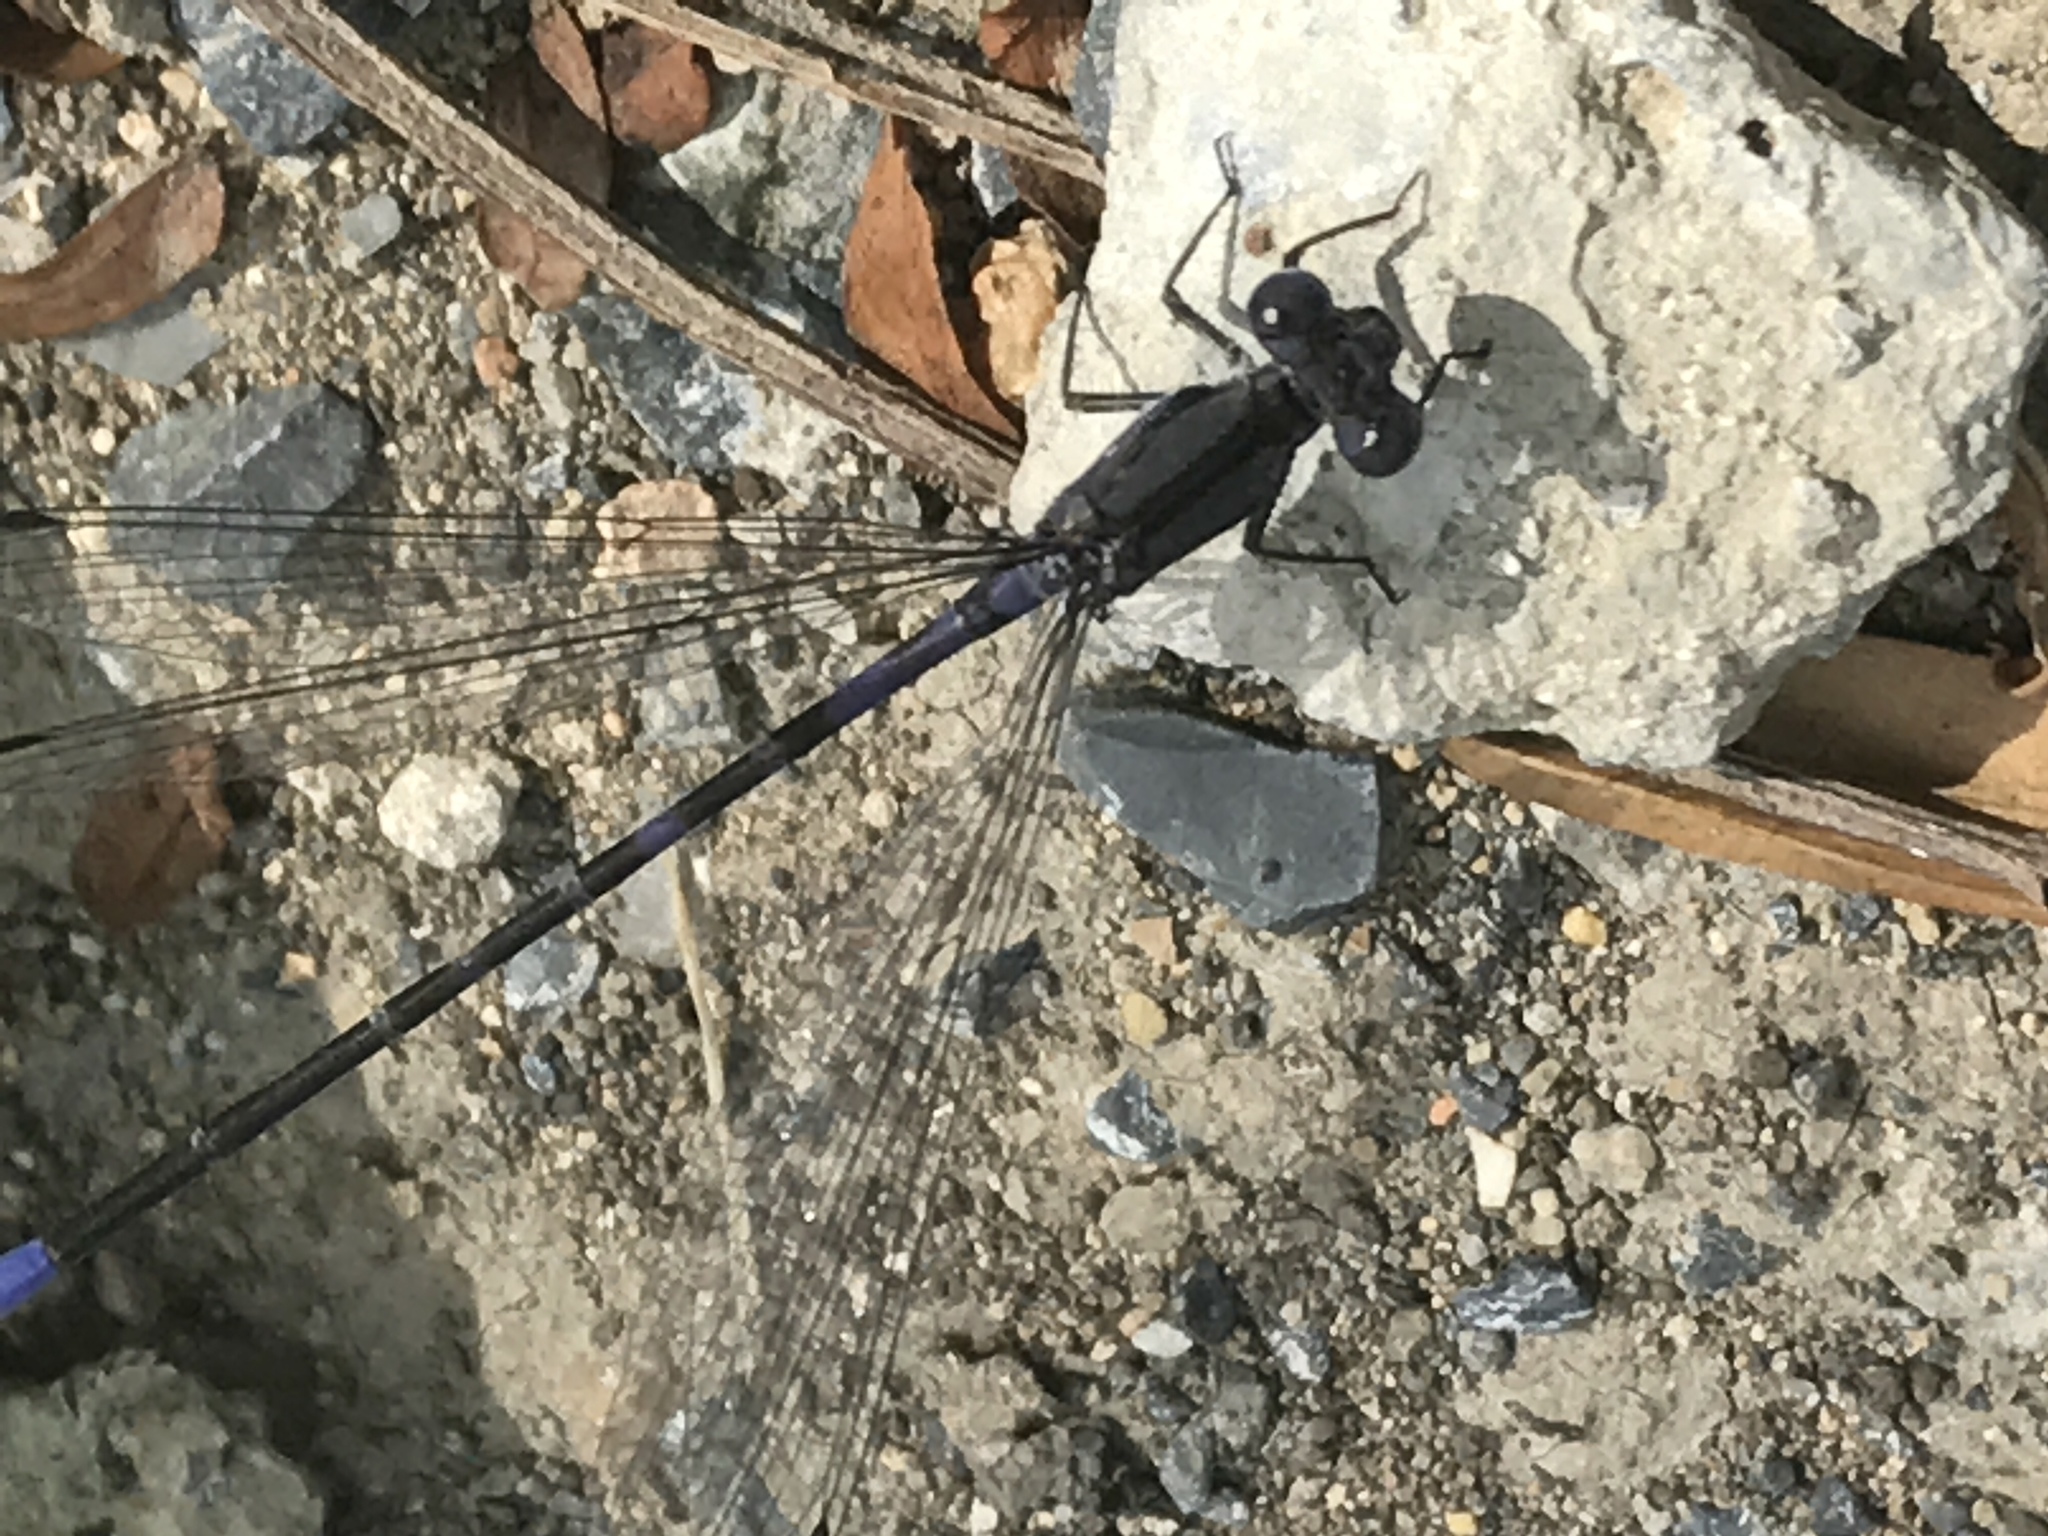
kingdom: Animalia
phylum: Arthropoda
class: Insecta
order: Odonata
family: Coenagrionidae
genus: Argia
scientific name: Argia immunda
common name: Kiowa dancer
